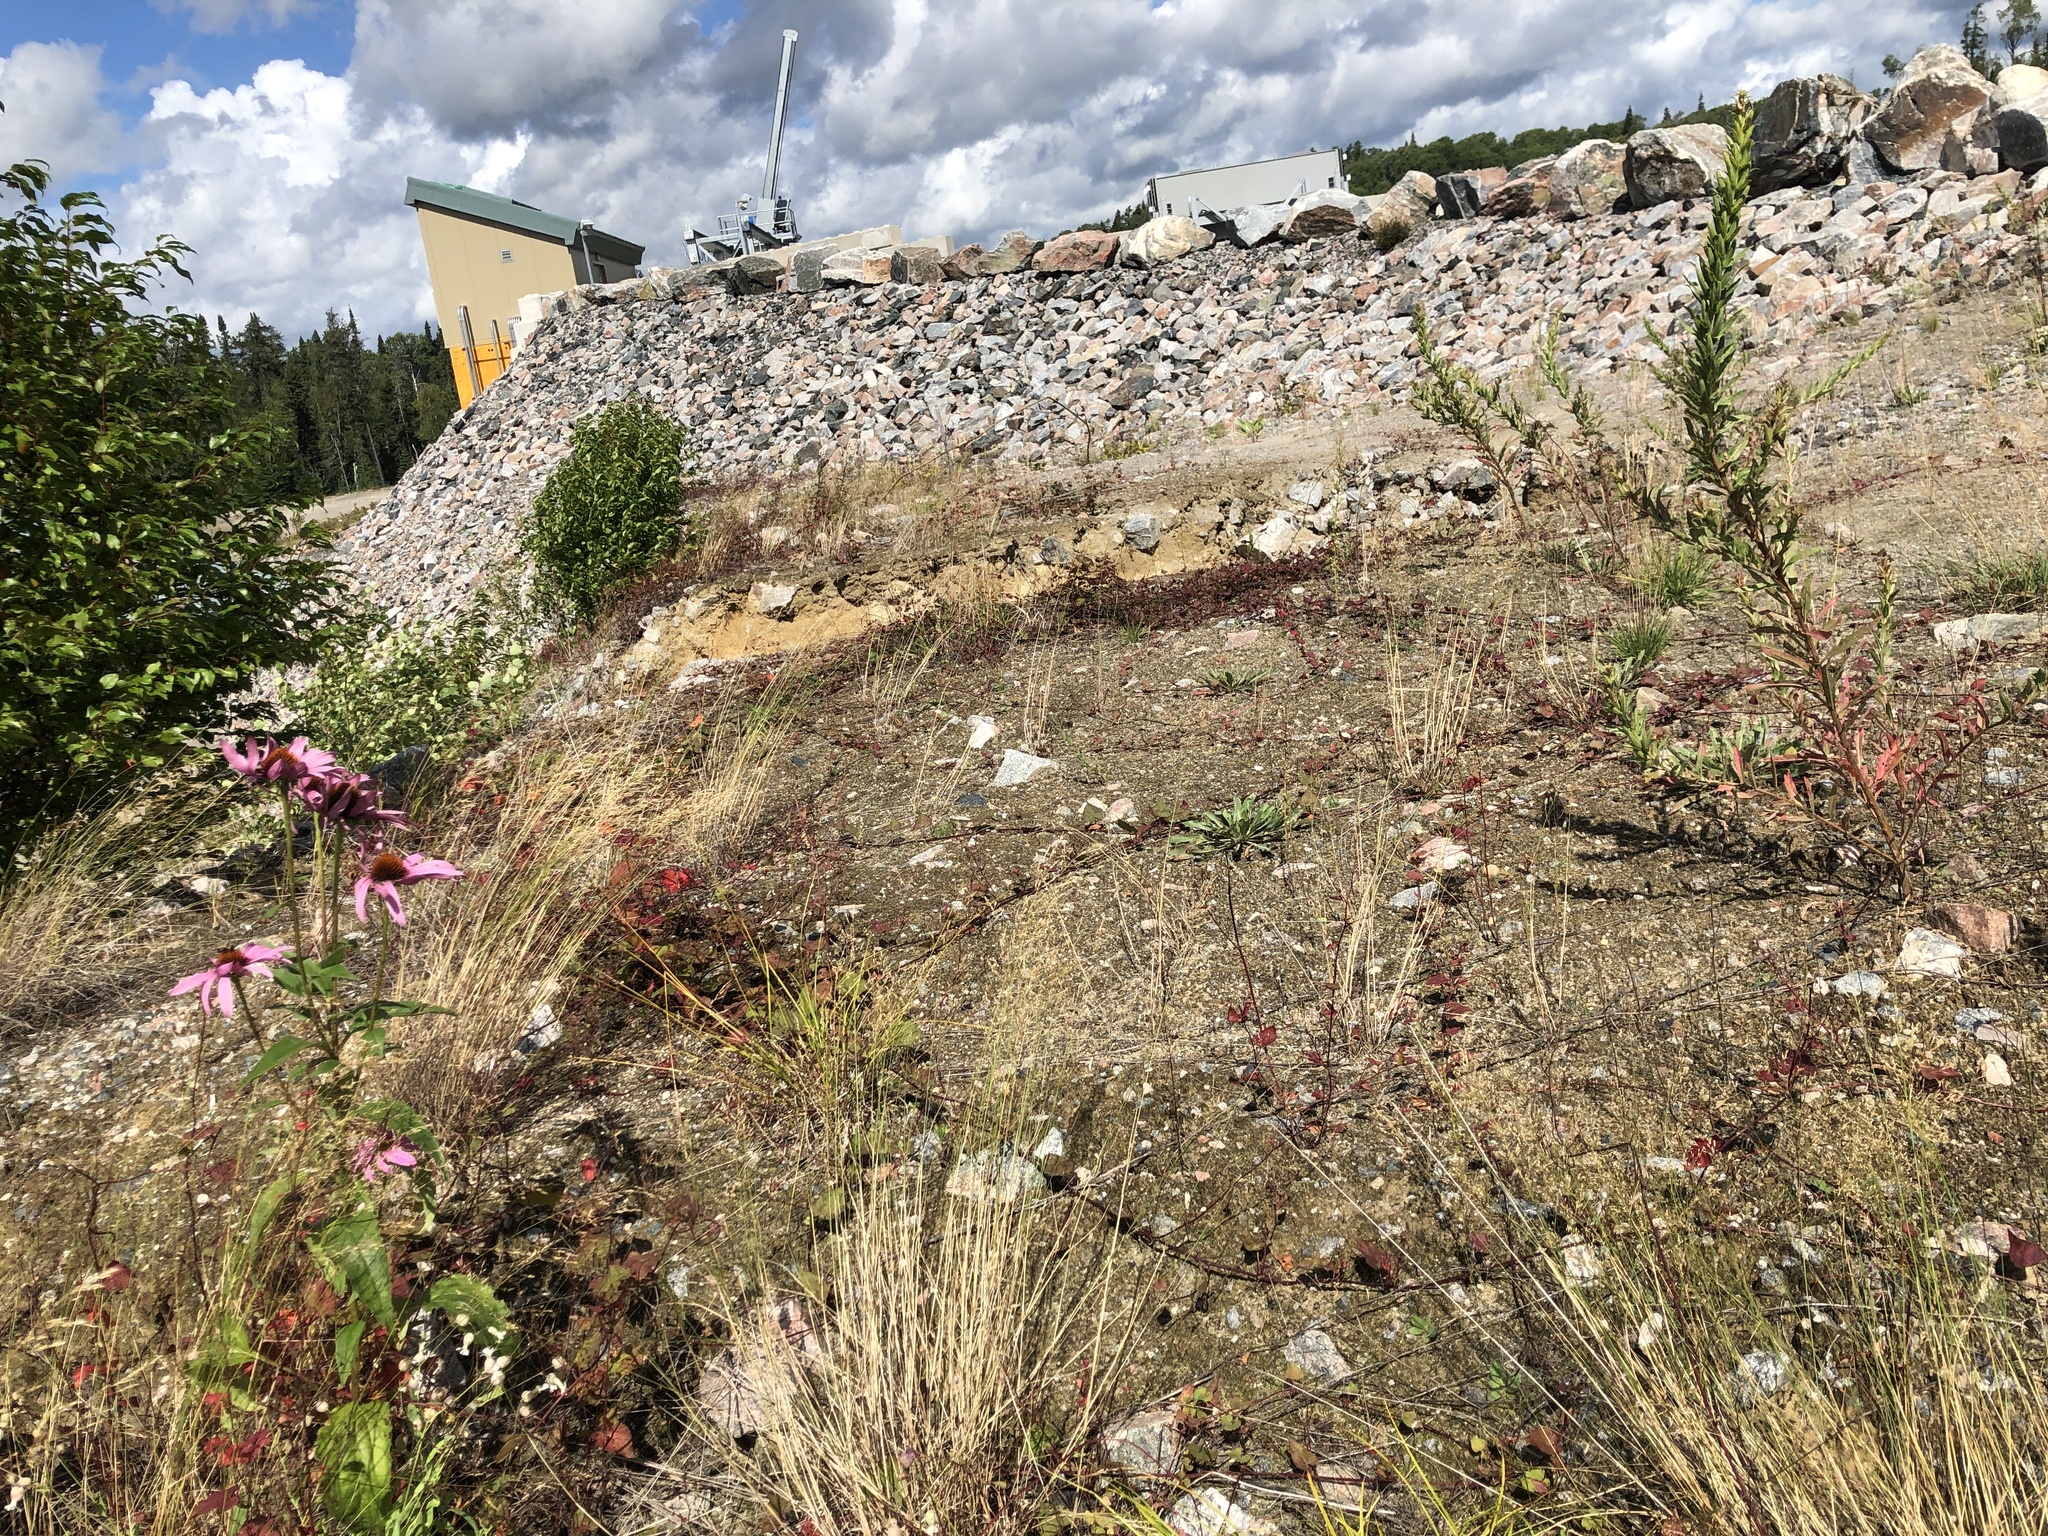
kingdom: Plantae
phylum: Tracheophyta
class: Magnoliopsida
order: Asterales
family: Asteraceae
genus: Echinacea
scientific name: Echinacea purpurea
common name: Broad-leaved purple coneflower
